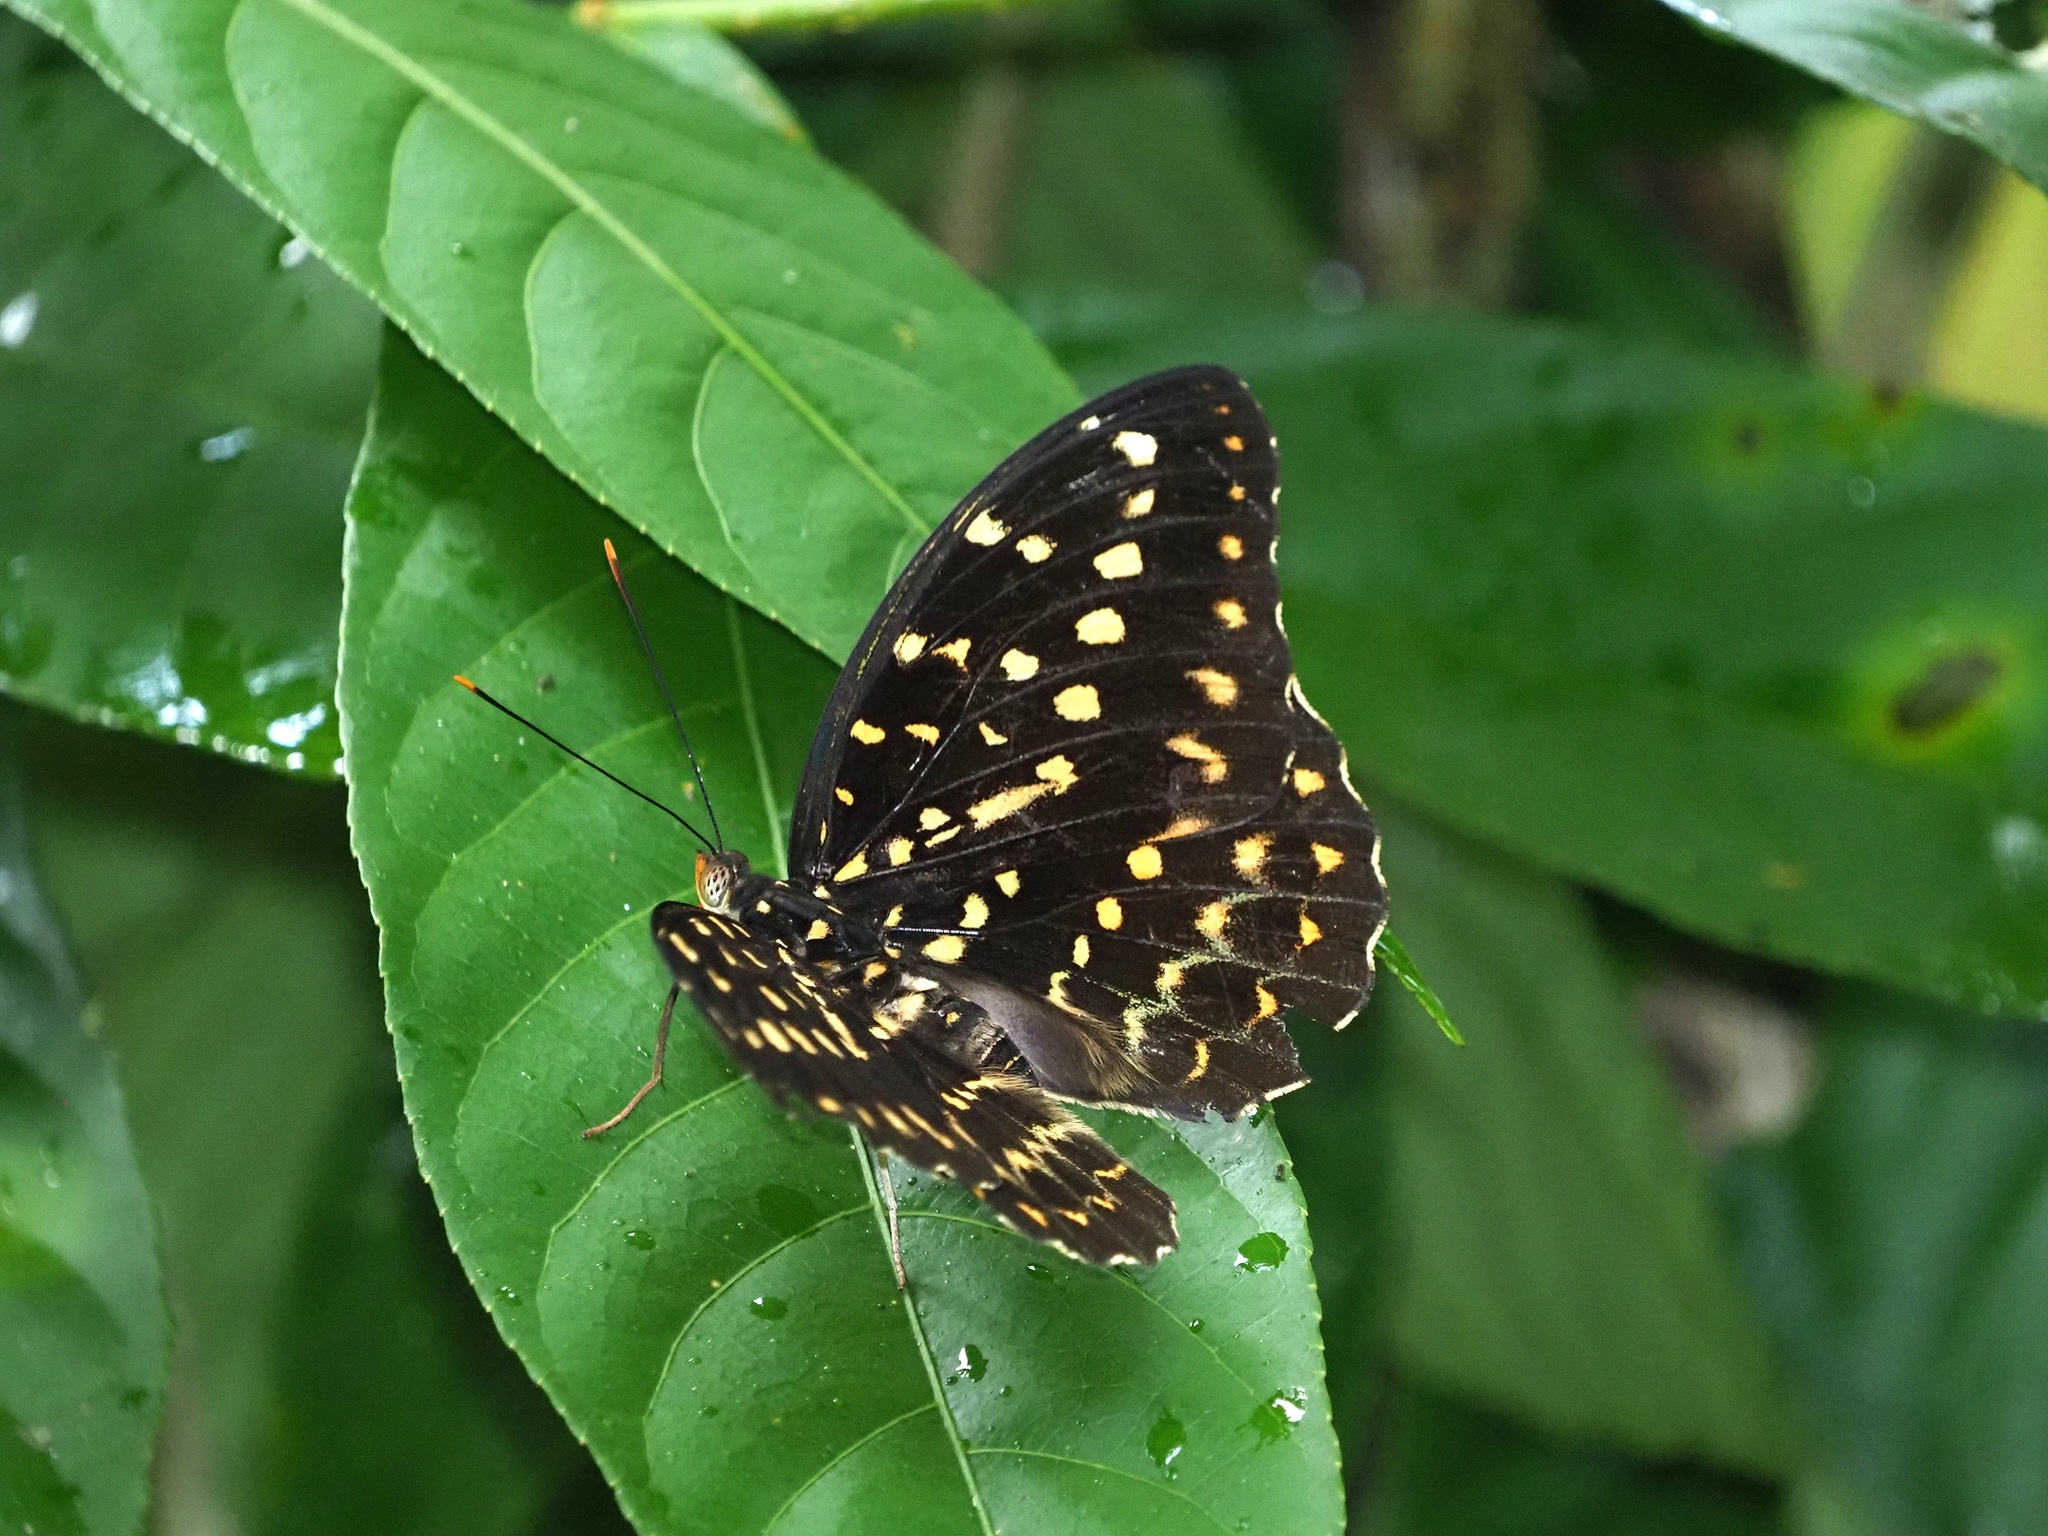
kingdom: Animalia
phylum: Arthropoda
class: Insecta
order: Lepidoptera
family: Nymphalidae
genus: Lexias
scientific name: Lexias pardalis
